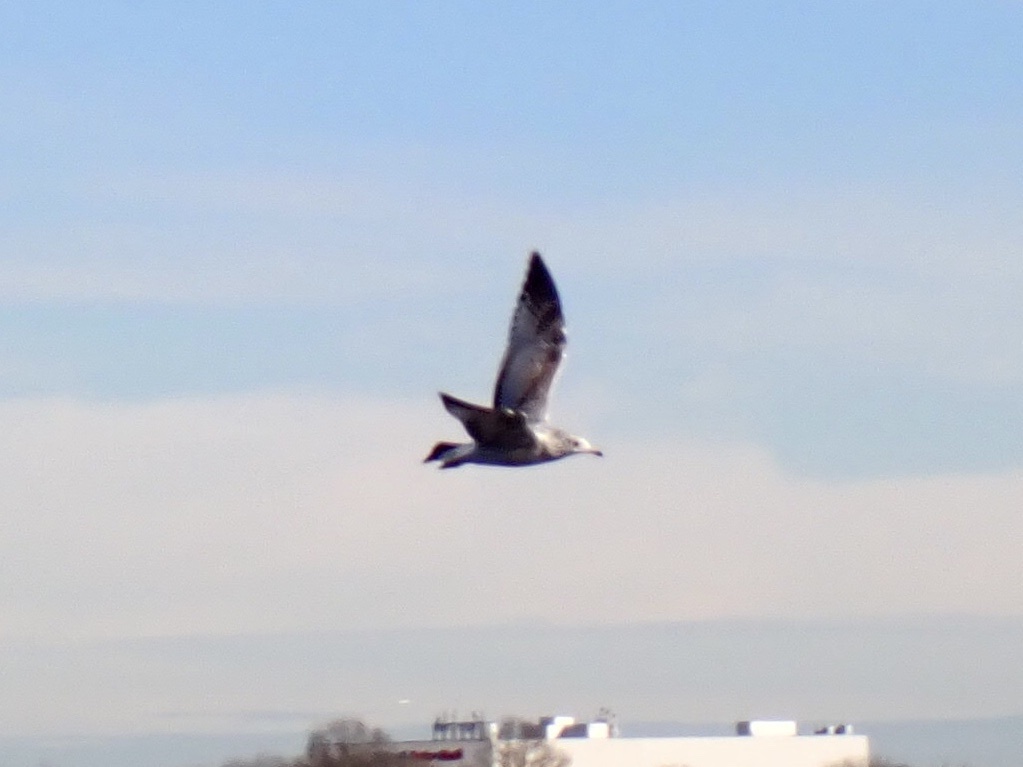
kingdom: Animalia
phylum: Chordata
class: Aves
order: Charadriiformes
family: Laridae
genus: Larus
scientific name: Larus delawarensis
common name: Ring-billed gull
